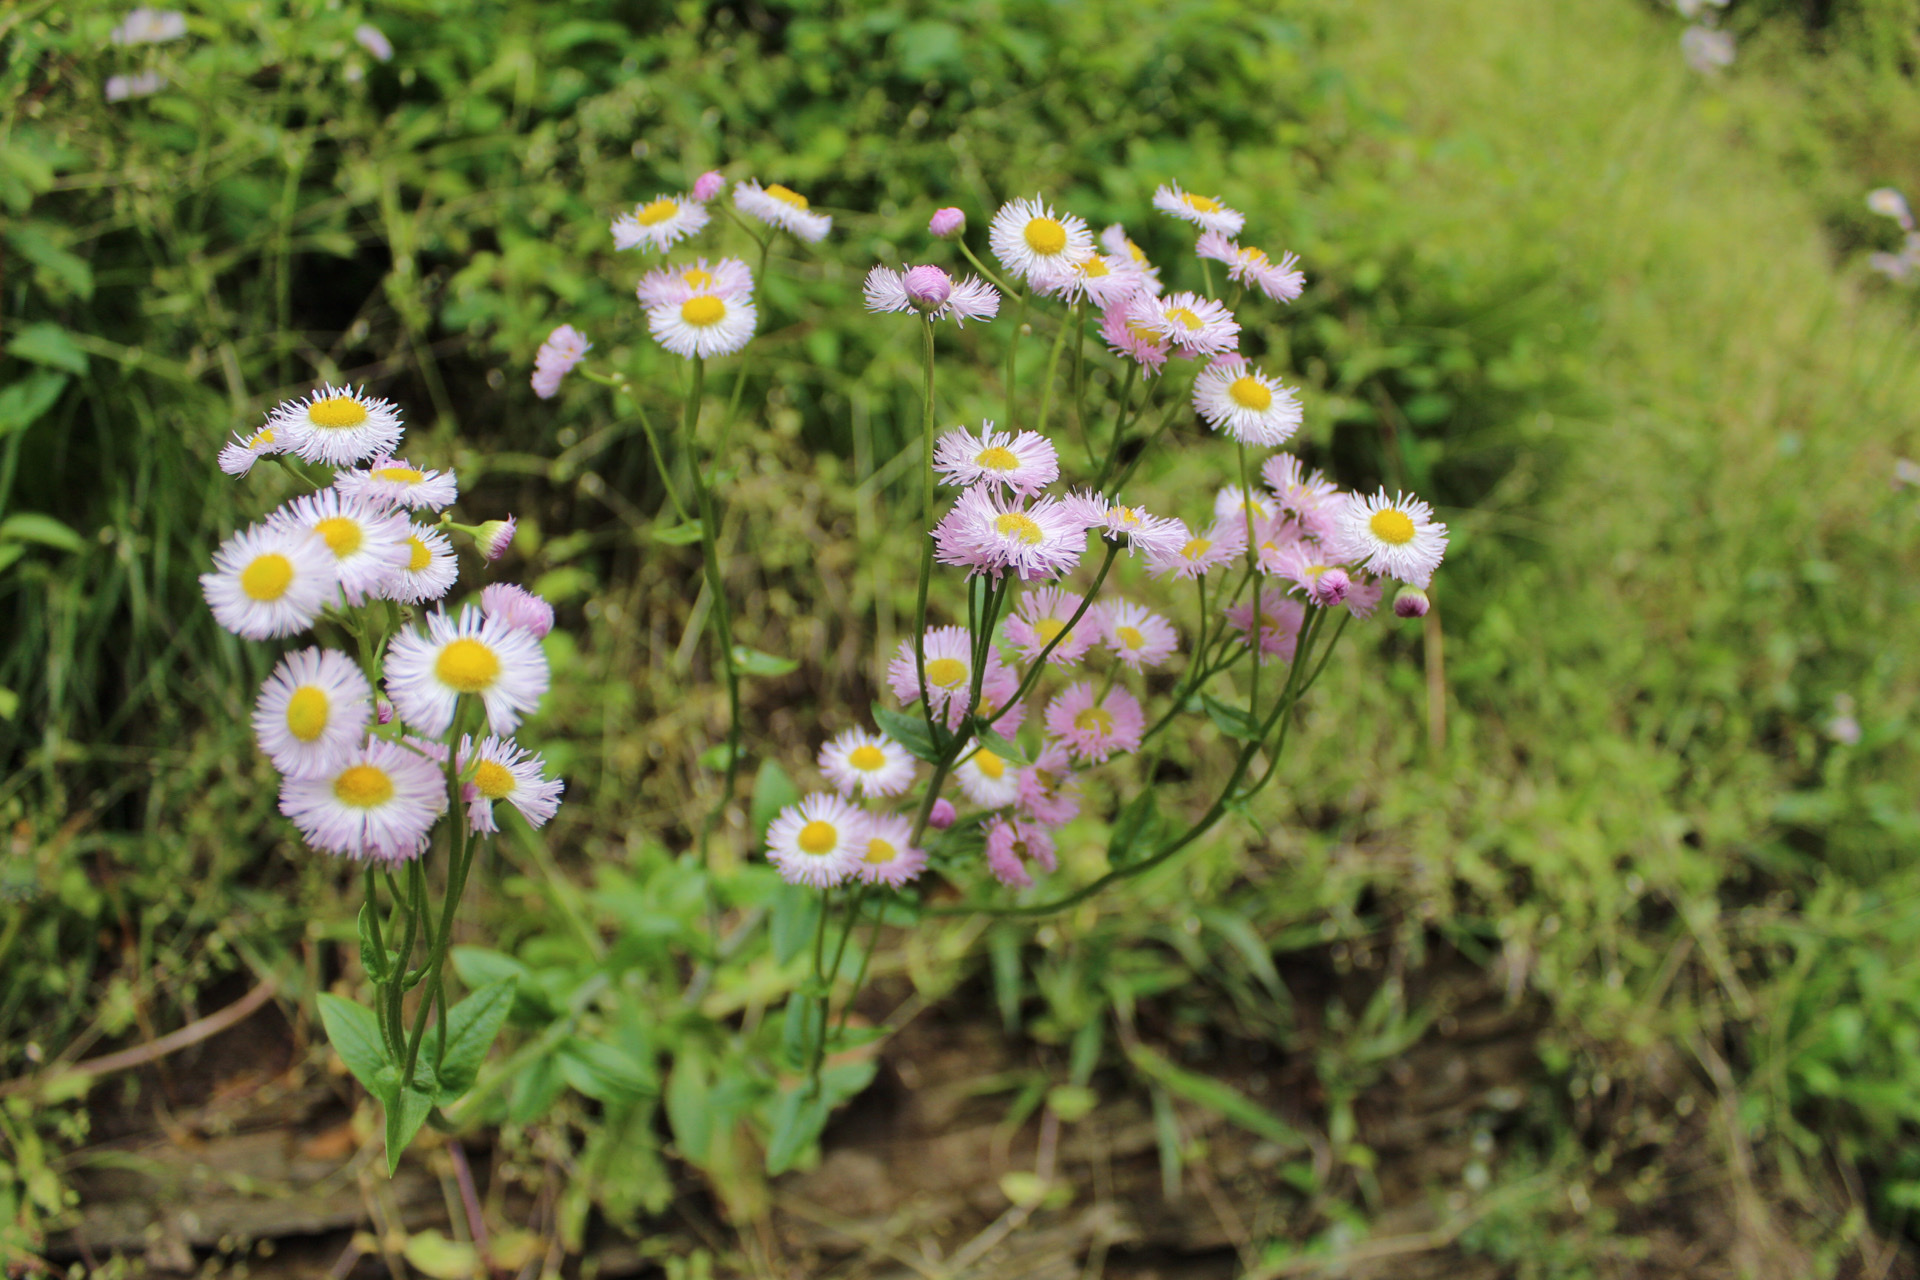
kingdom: Plantae
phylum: Tracheophyta
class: Magnoliopsida
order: Asterales
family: Asteraceae
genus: Erigeron
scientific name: Erigeron philadelphicus
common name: Robin's-plantain
